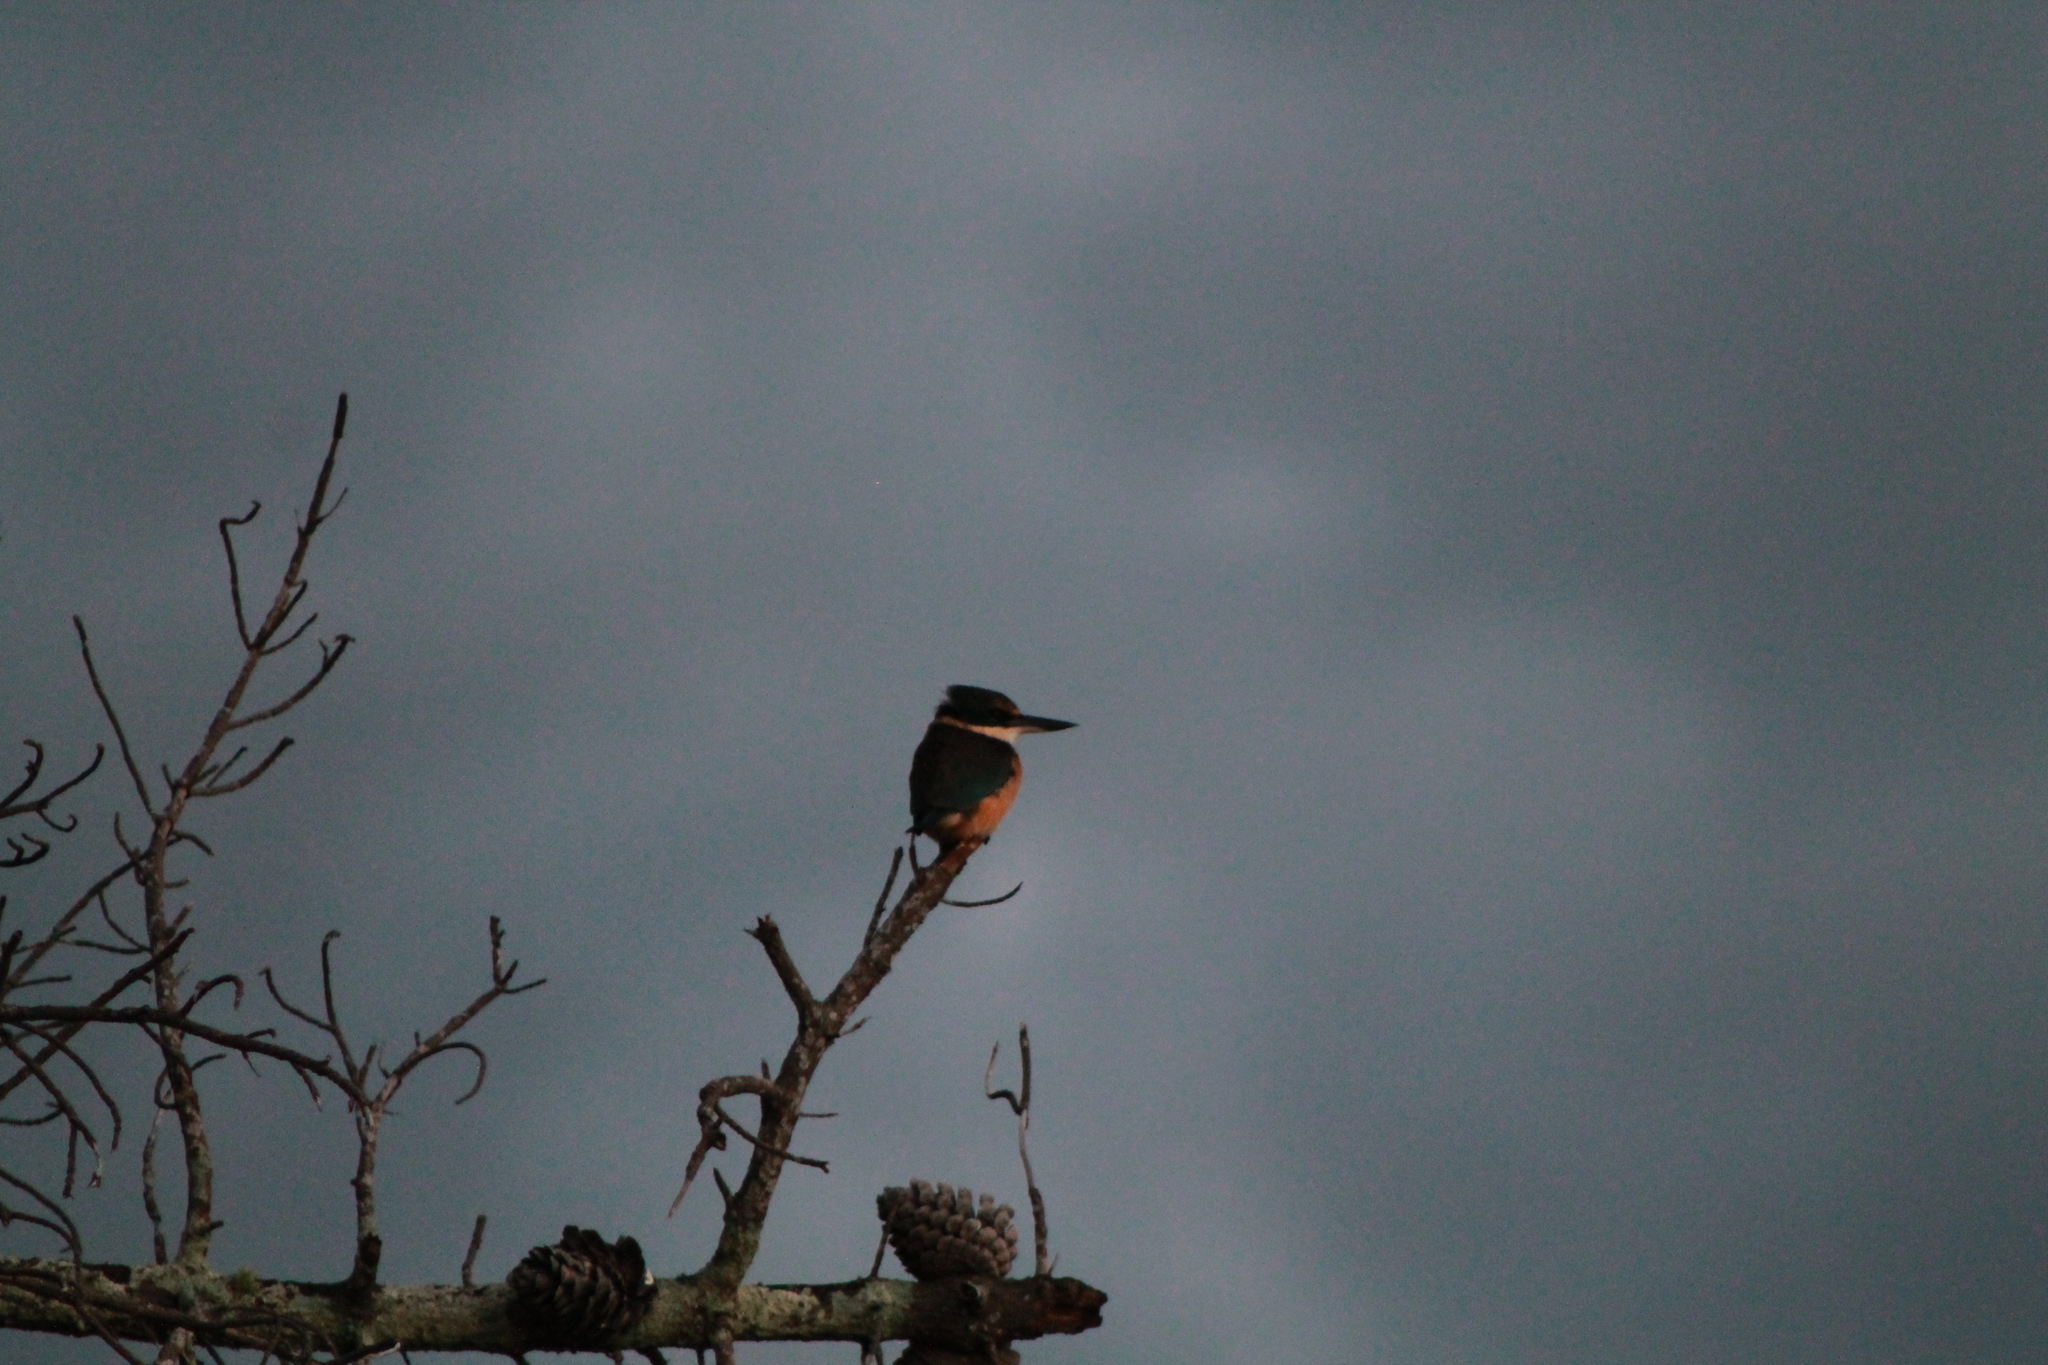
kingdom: Animalia
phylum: Chordata
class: Aves
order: Coraciiformes
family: Alcedinidae
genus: Todiramphus
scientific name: Todiramphus sanctus
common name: Sacred kingfisher
